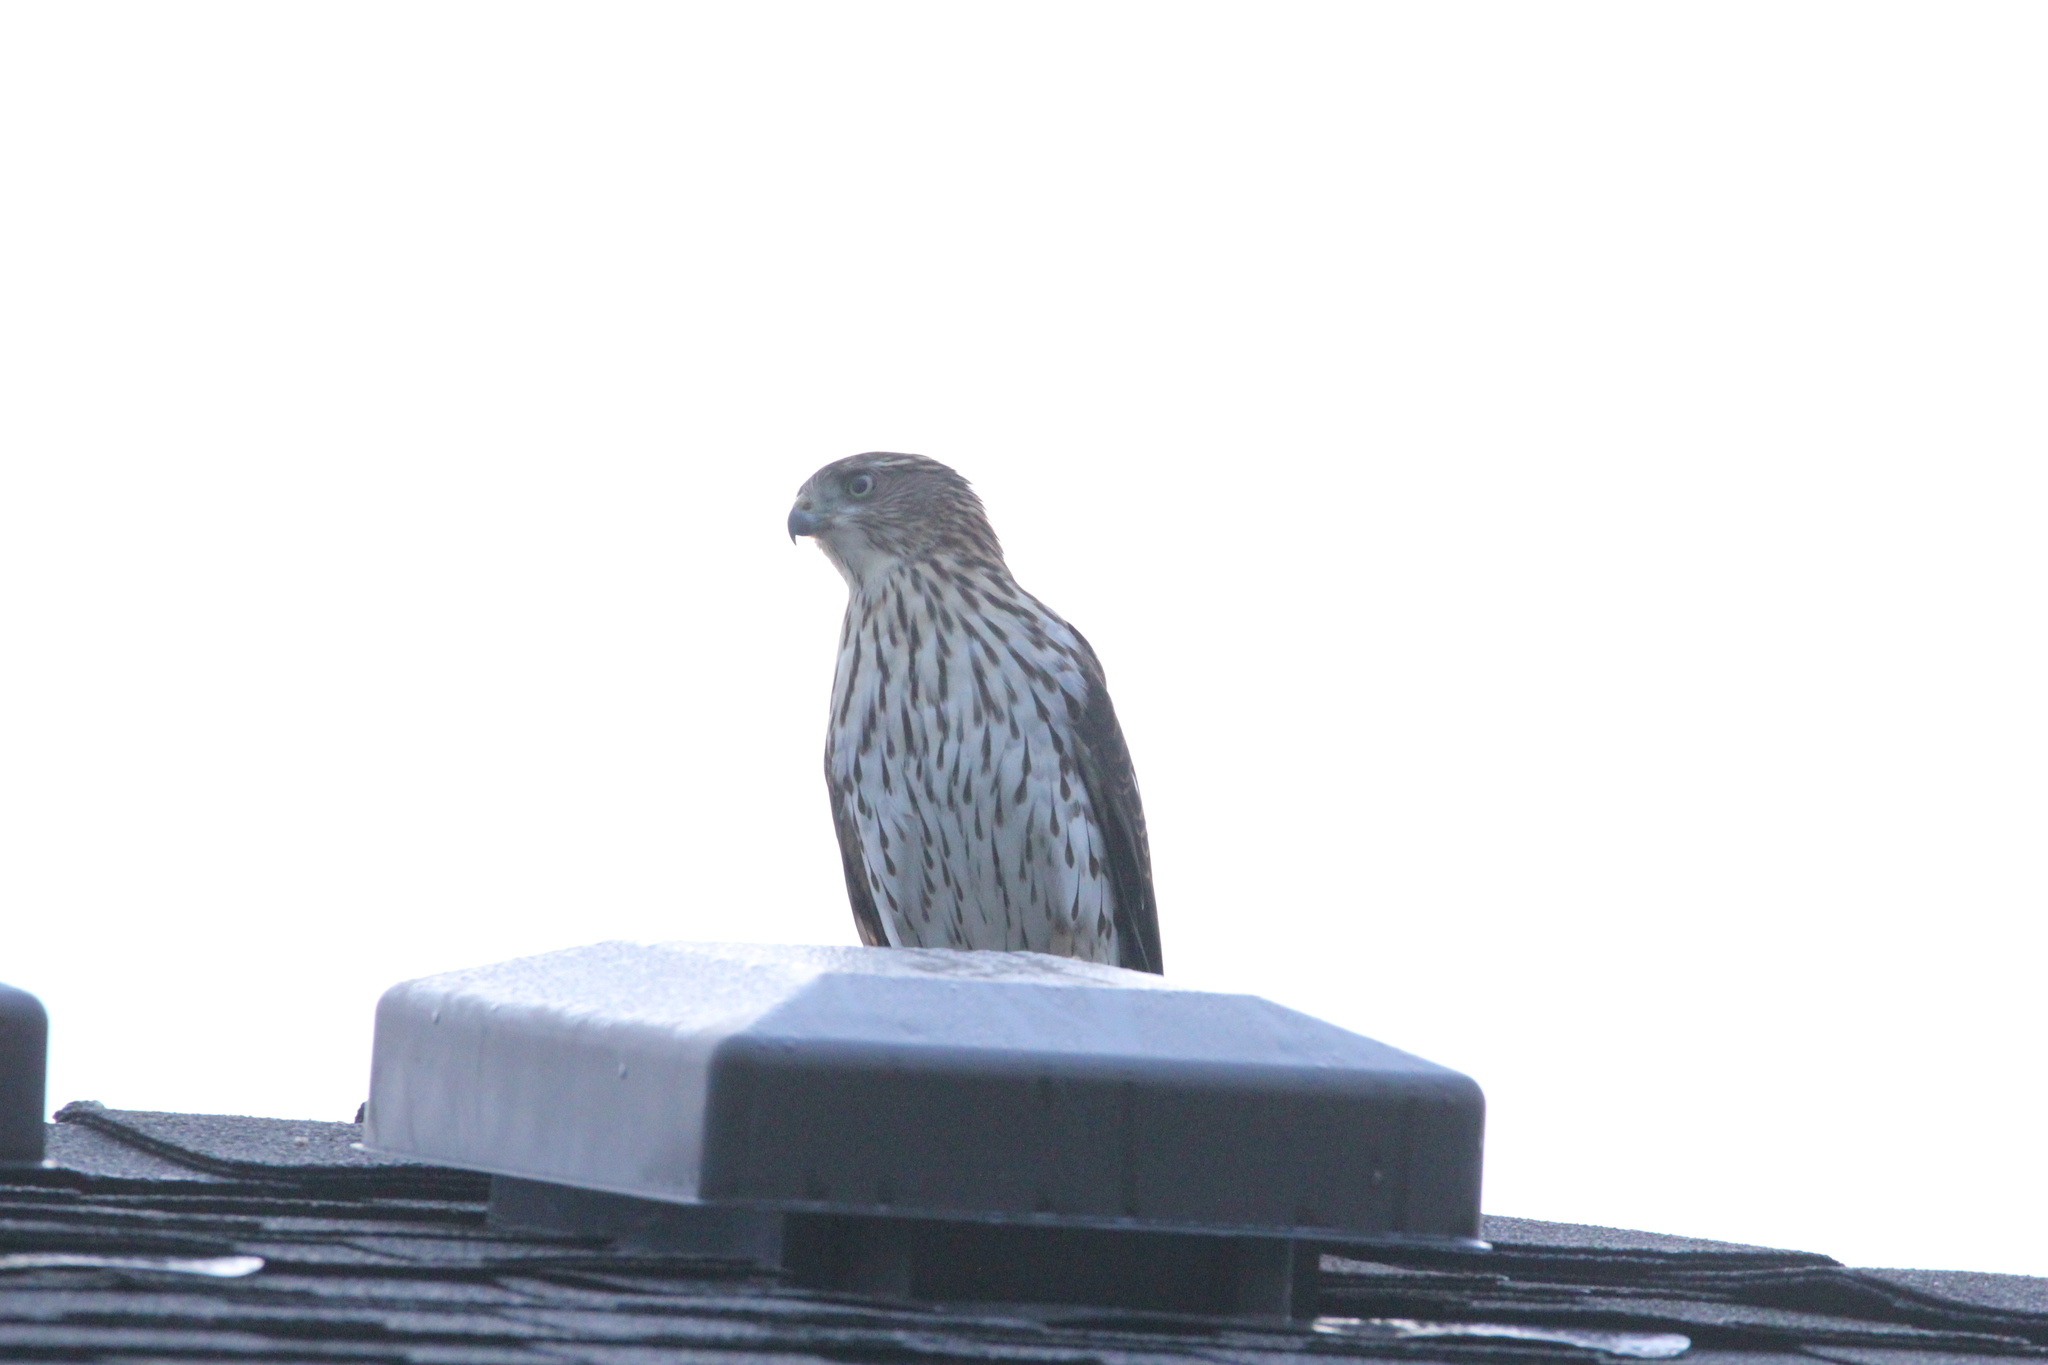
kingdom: Animalia
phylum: Chordata
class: Aves
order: Accipitriformes
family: Accipitridae
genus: Accipiter
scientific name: Accipiter cooperii
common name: Cooper's hawk
